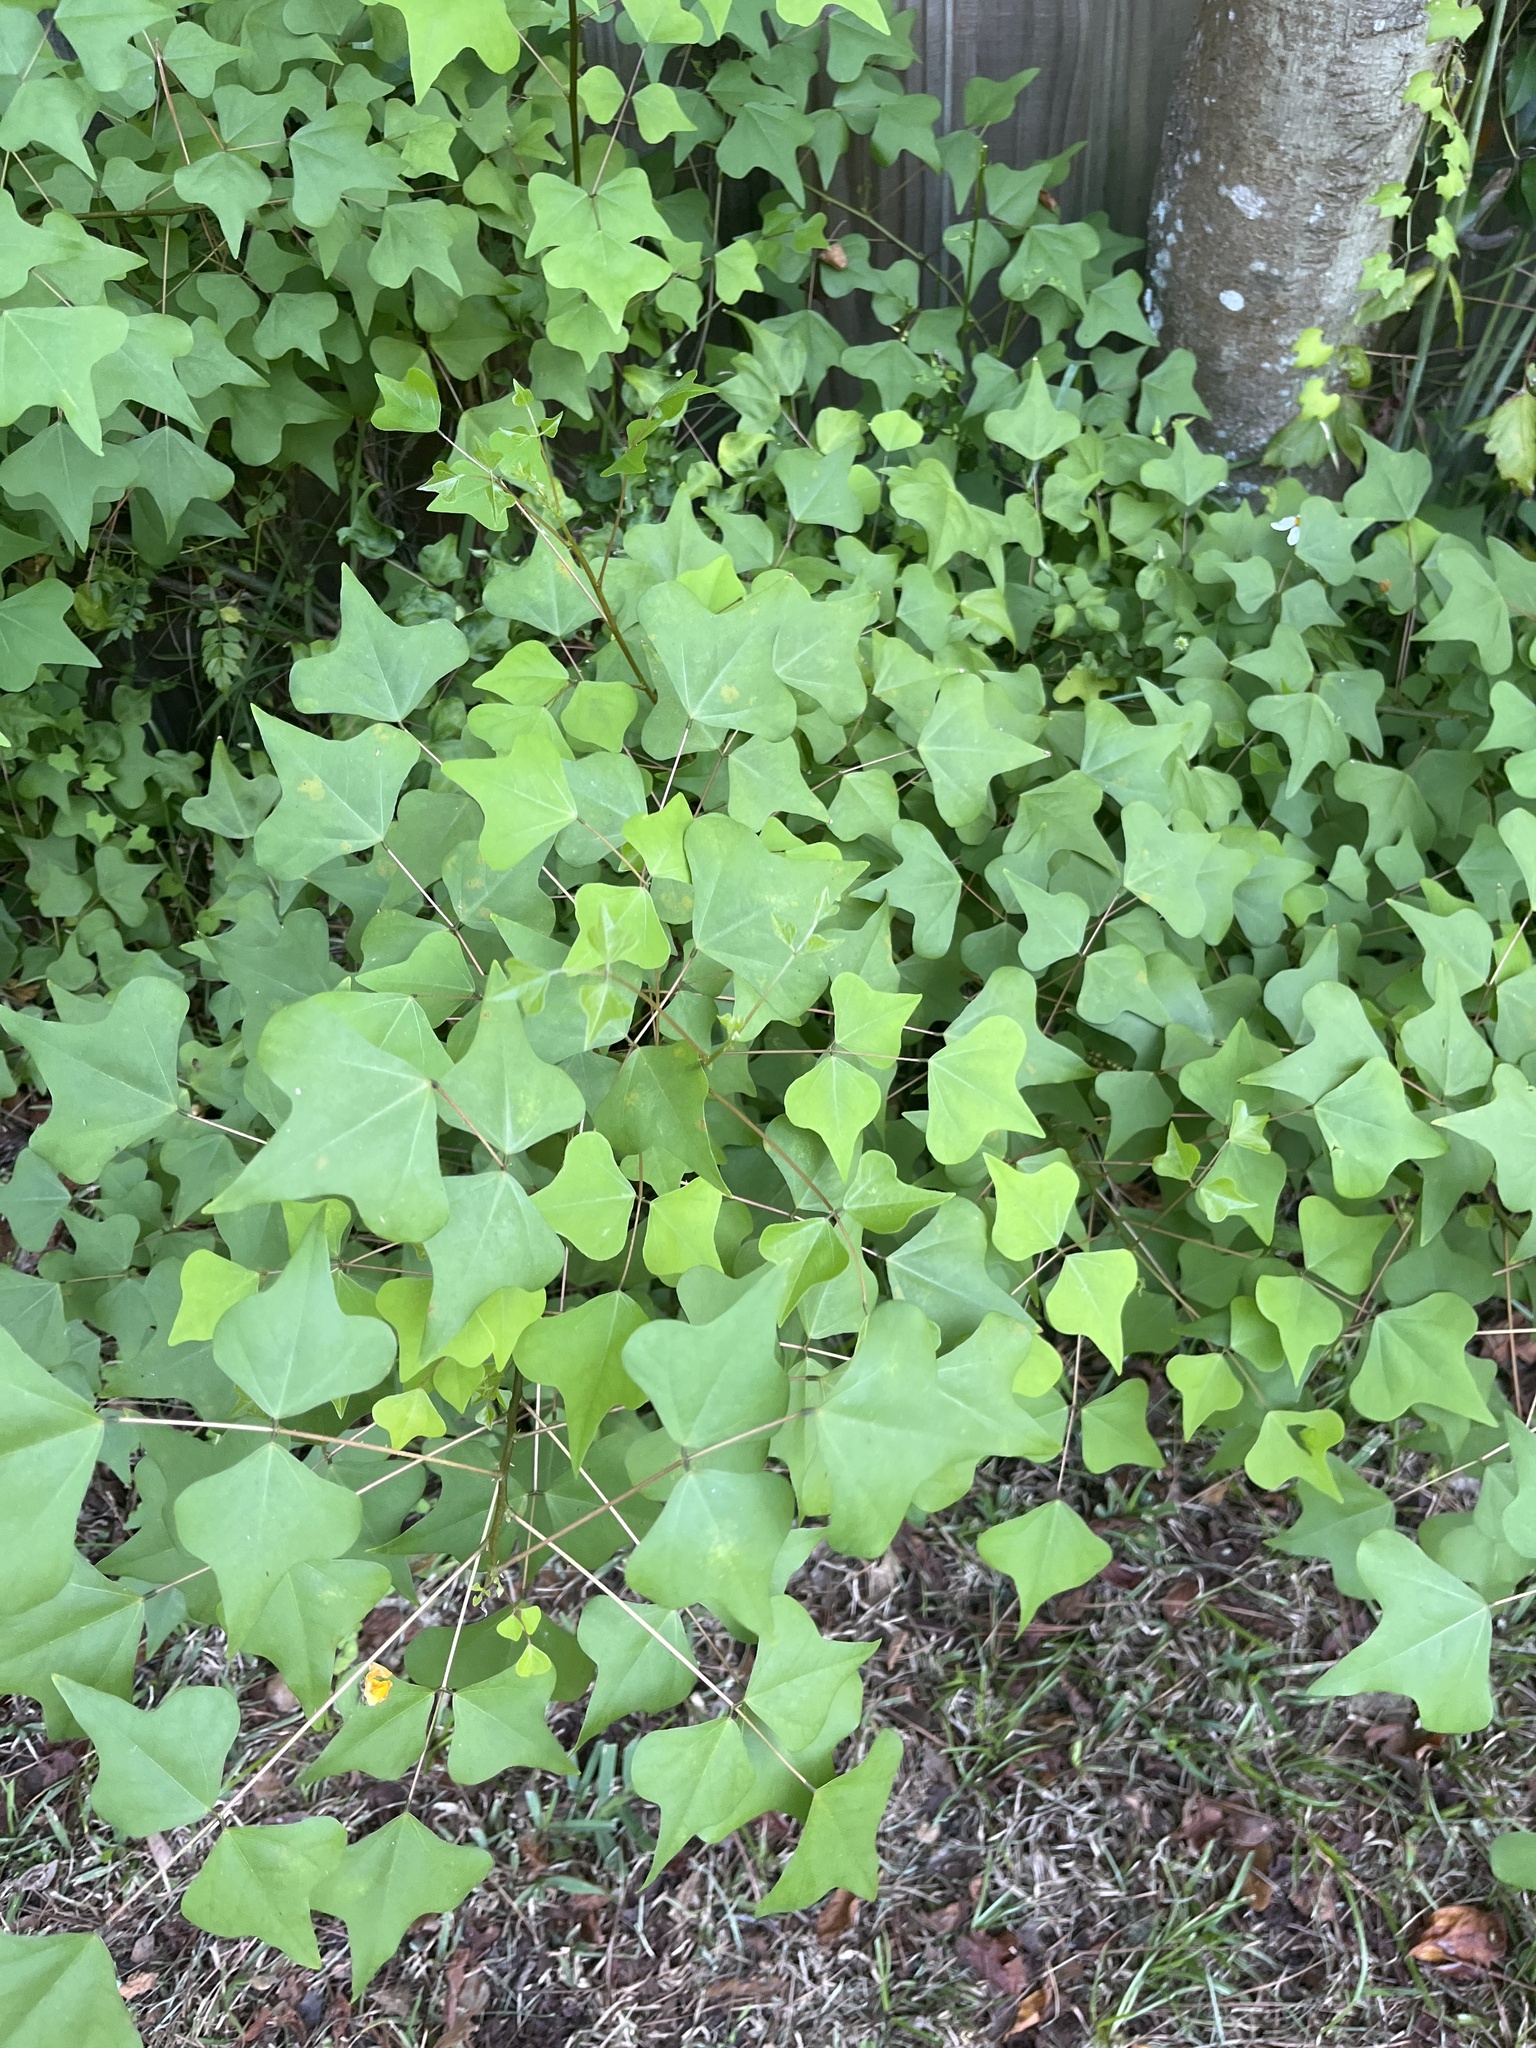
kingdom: Plantae
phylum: Tracheophyta
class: Magnoliopsida
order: Fabales
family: Fabaceae
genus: Erythrina
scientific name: Erythrina herbacea
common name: Coral-bean
